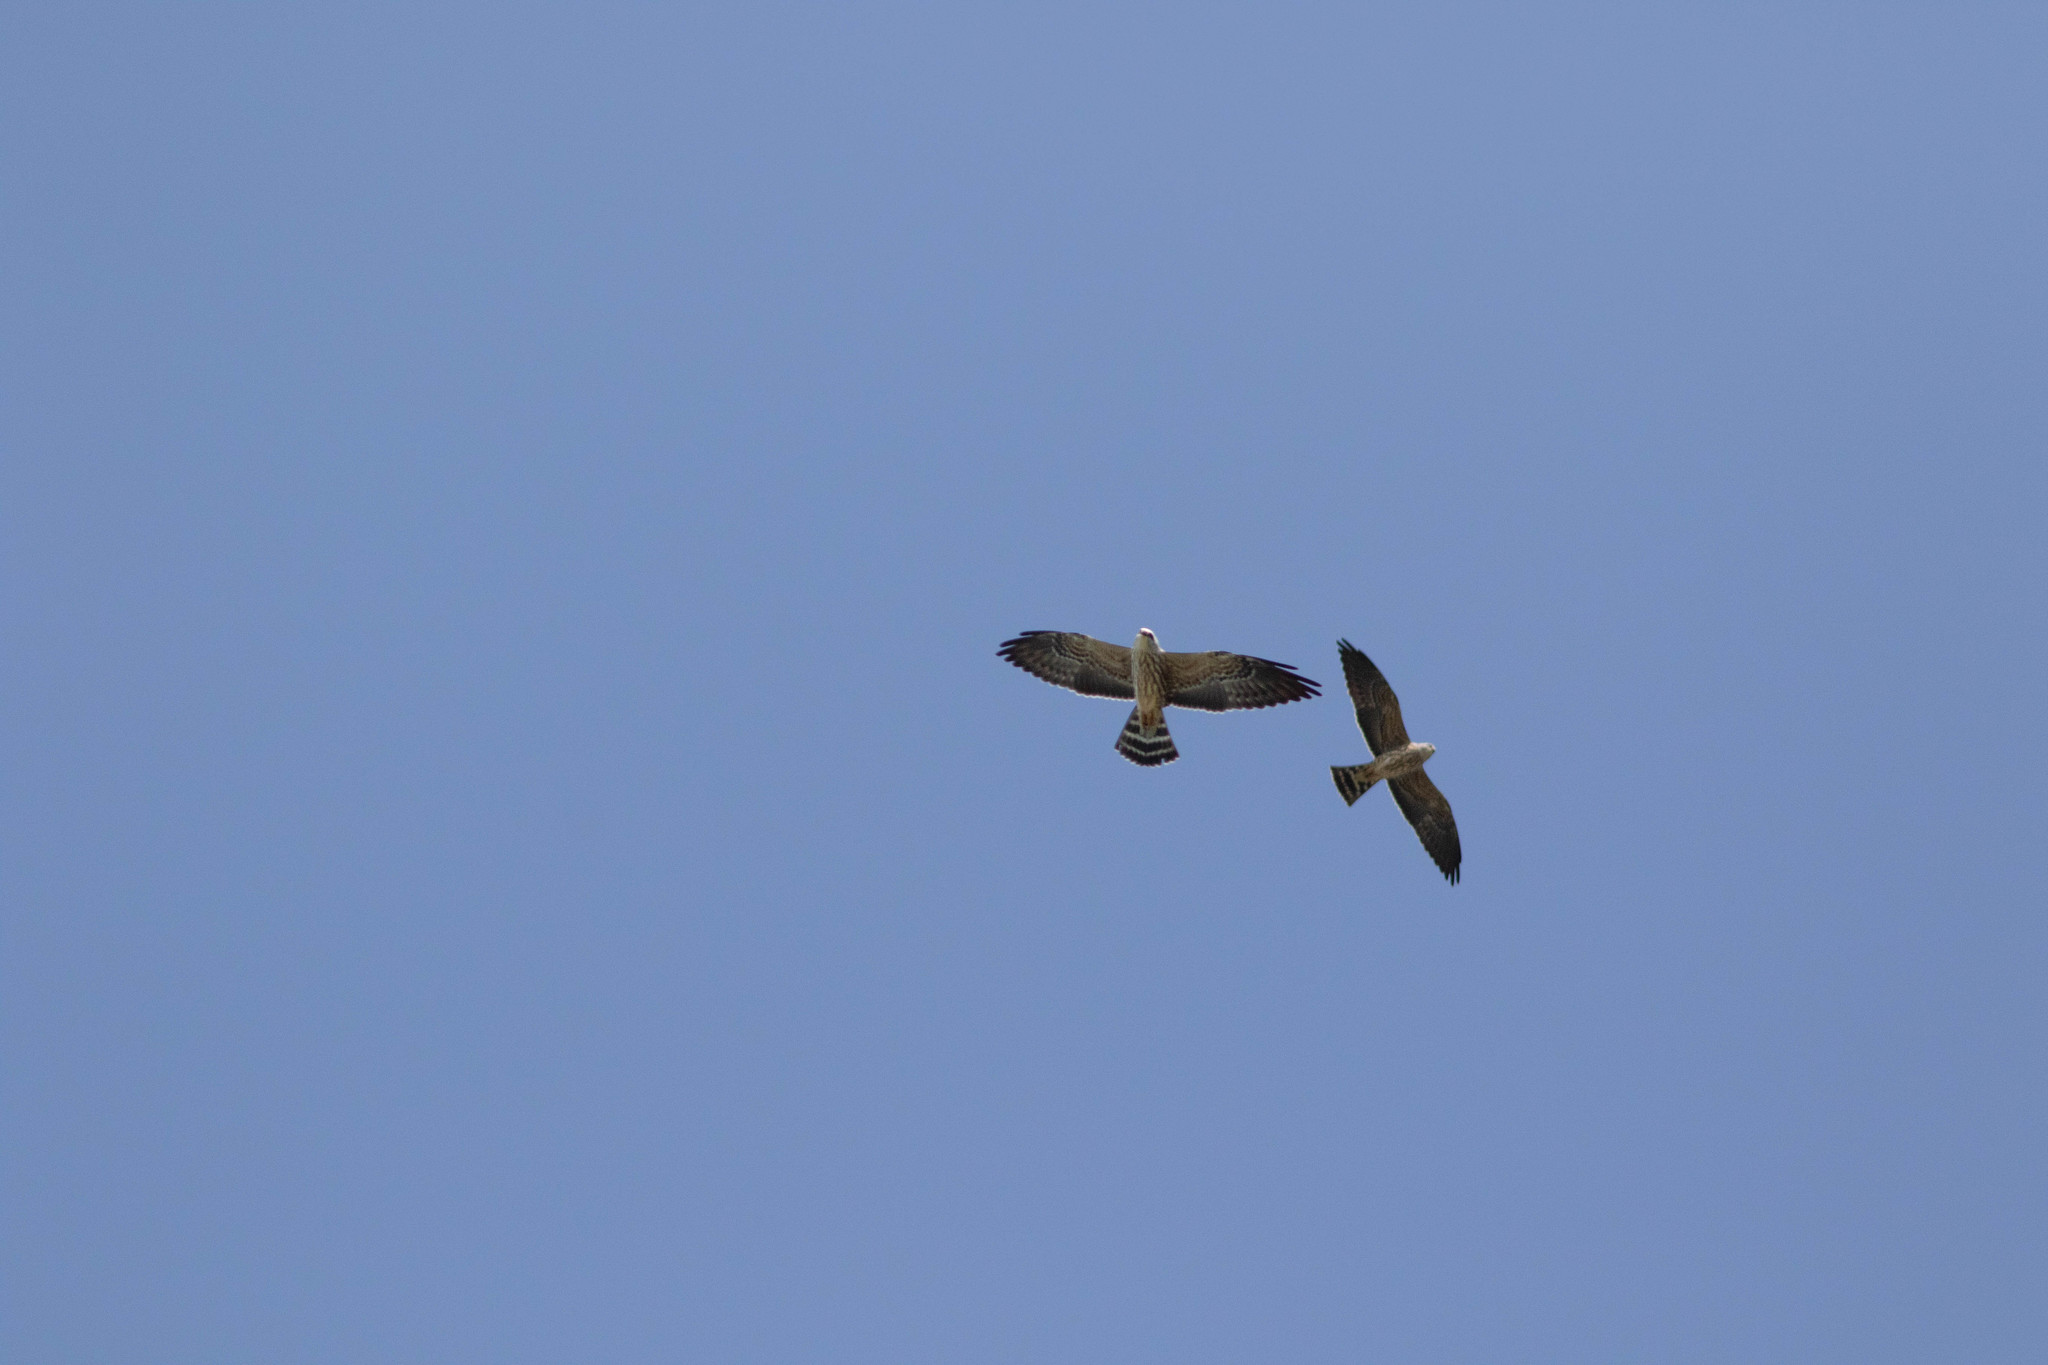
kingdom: Animalia
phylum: Chordata
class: Aves
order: Accipitriformes
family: Accipitridae
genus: Ictinia
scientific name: Ictinia mississippiensis
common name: Mississippi kite
